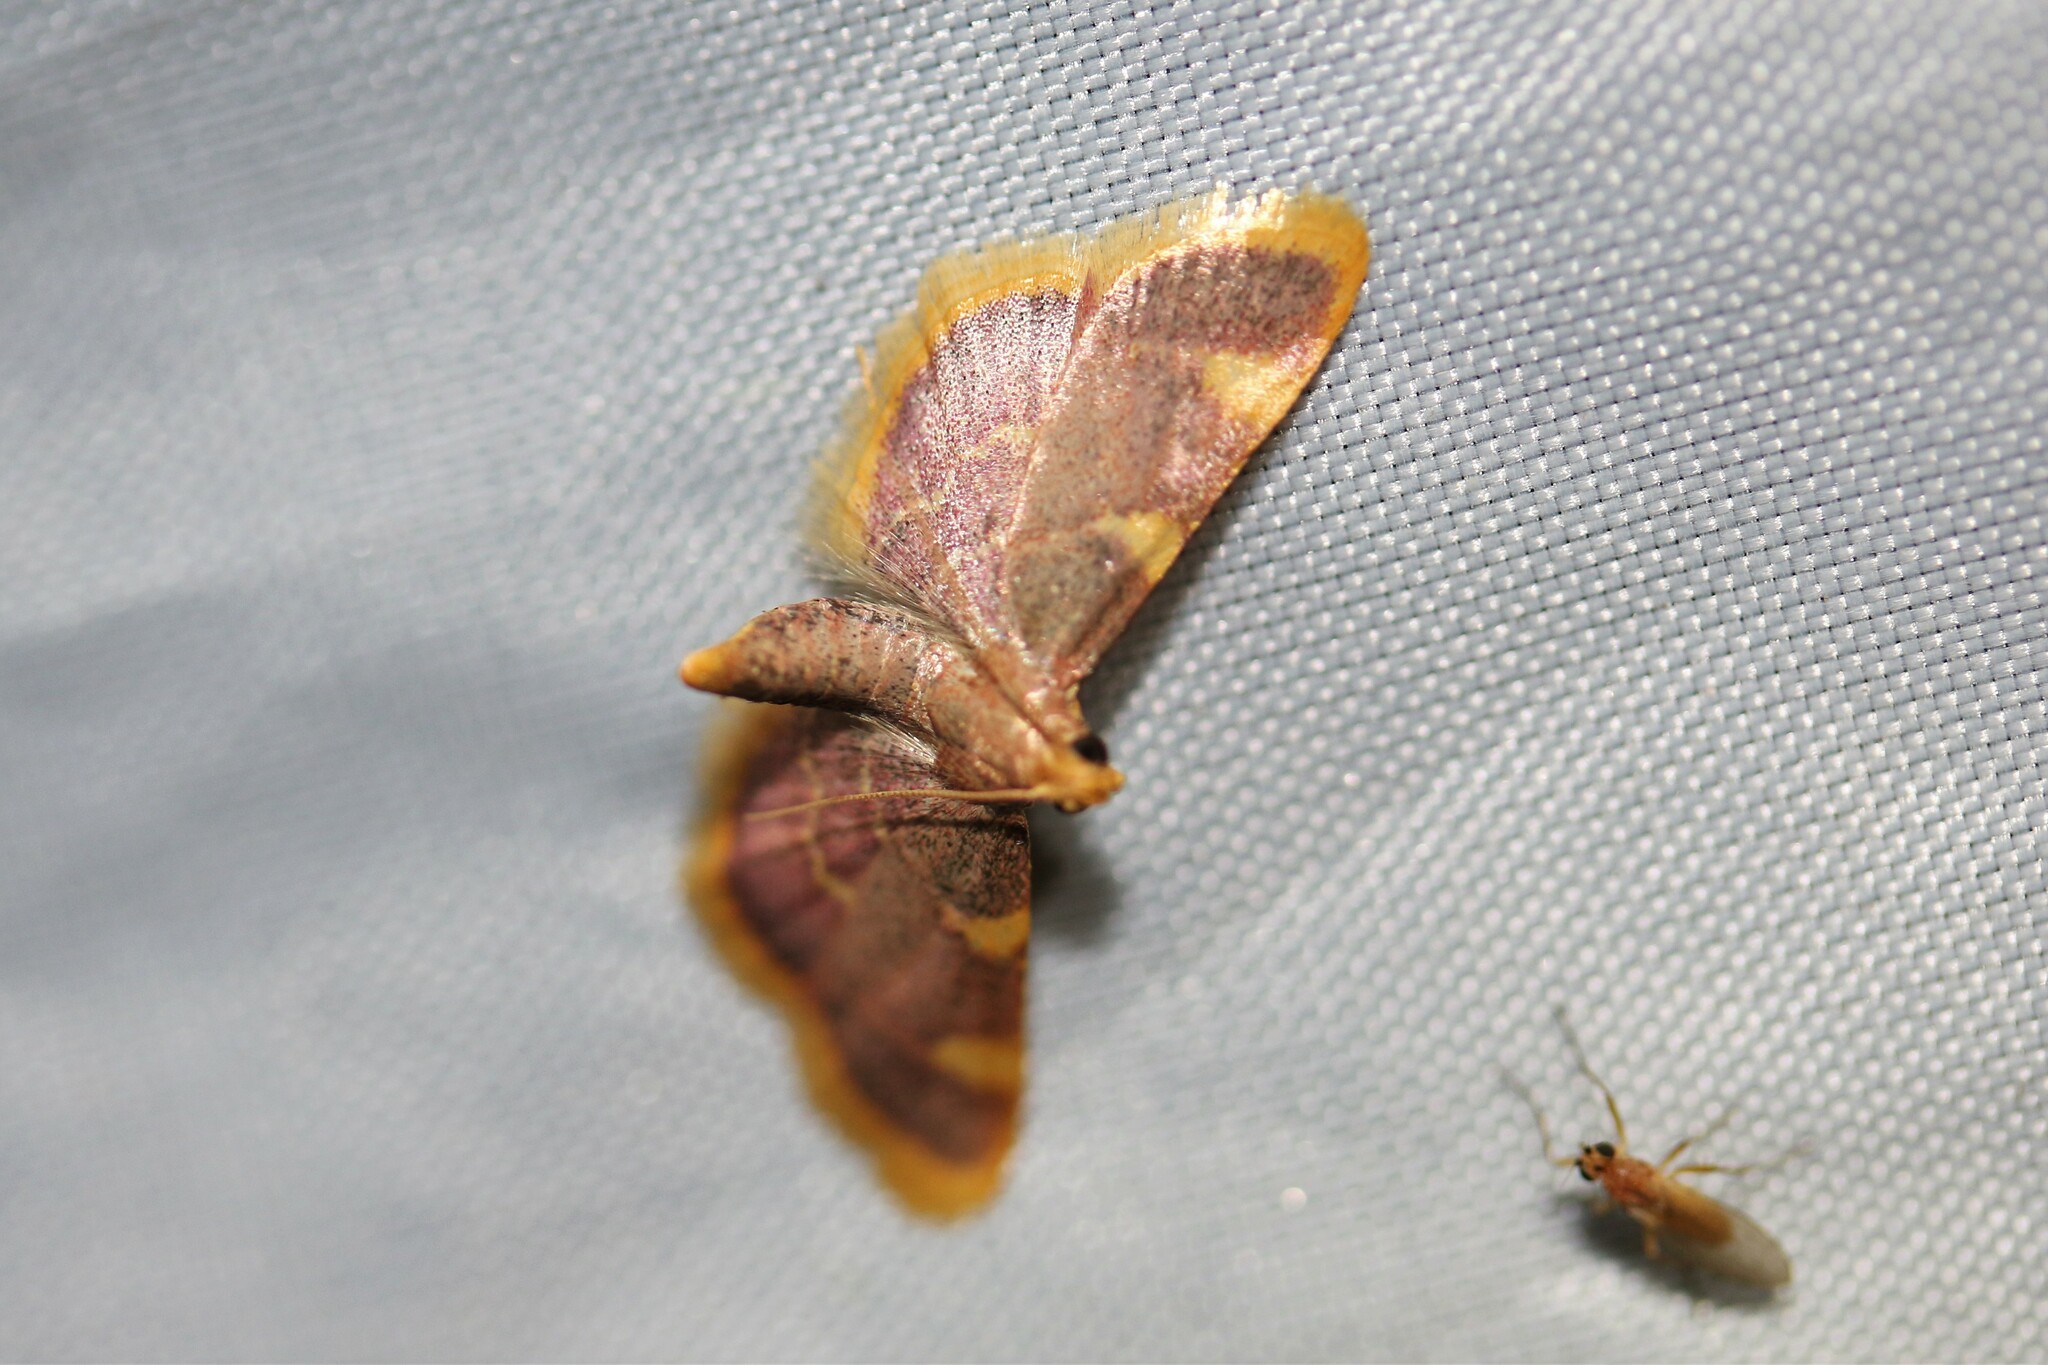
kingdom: Animalia
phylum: Arthropoda
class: Insecta
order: Lepidoptera
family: Pyralidae
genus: Hypsopygia
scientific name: Hypsopygia costalis
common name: Gold triangle
